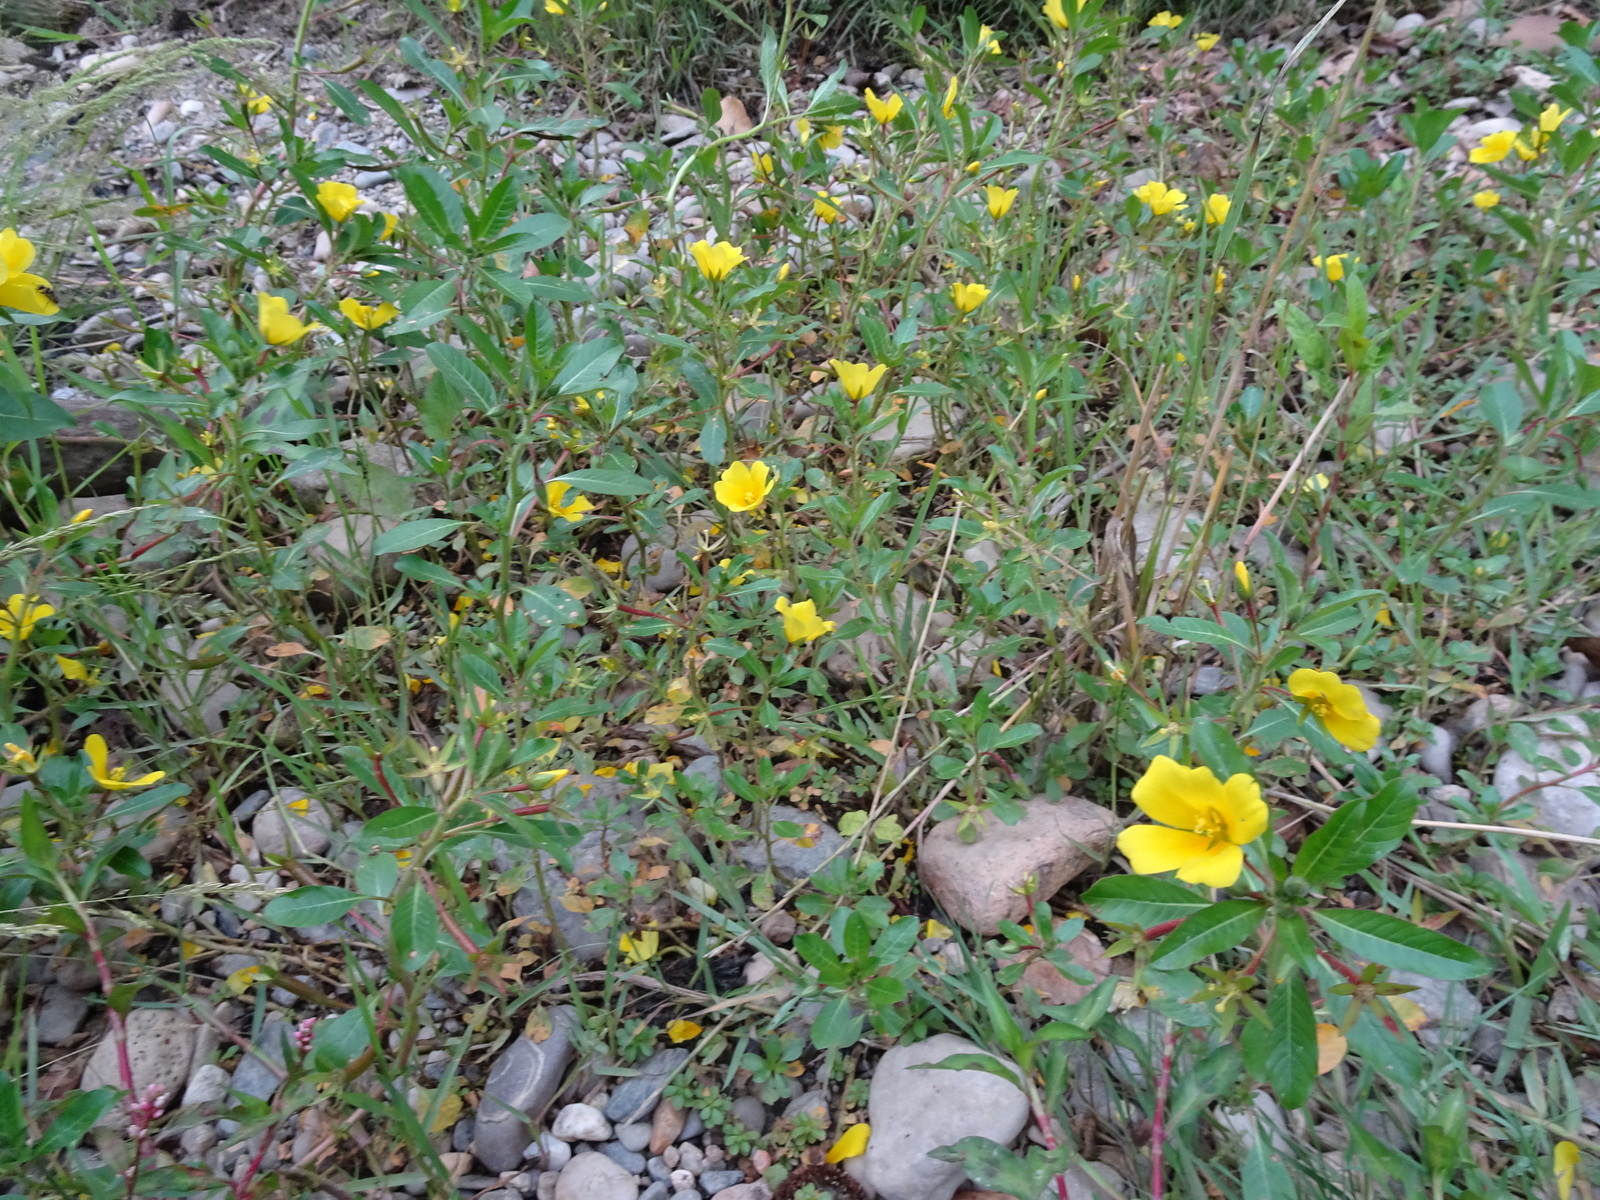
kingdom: Plantae
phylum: Tracheophyta
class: Magnoliopsida
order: Myrtales
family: Onagraceae
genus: Ludwigia
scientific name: Ludwigia peploides
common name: Floating primrose-willow
